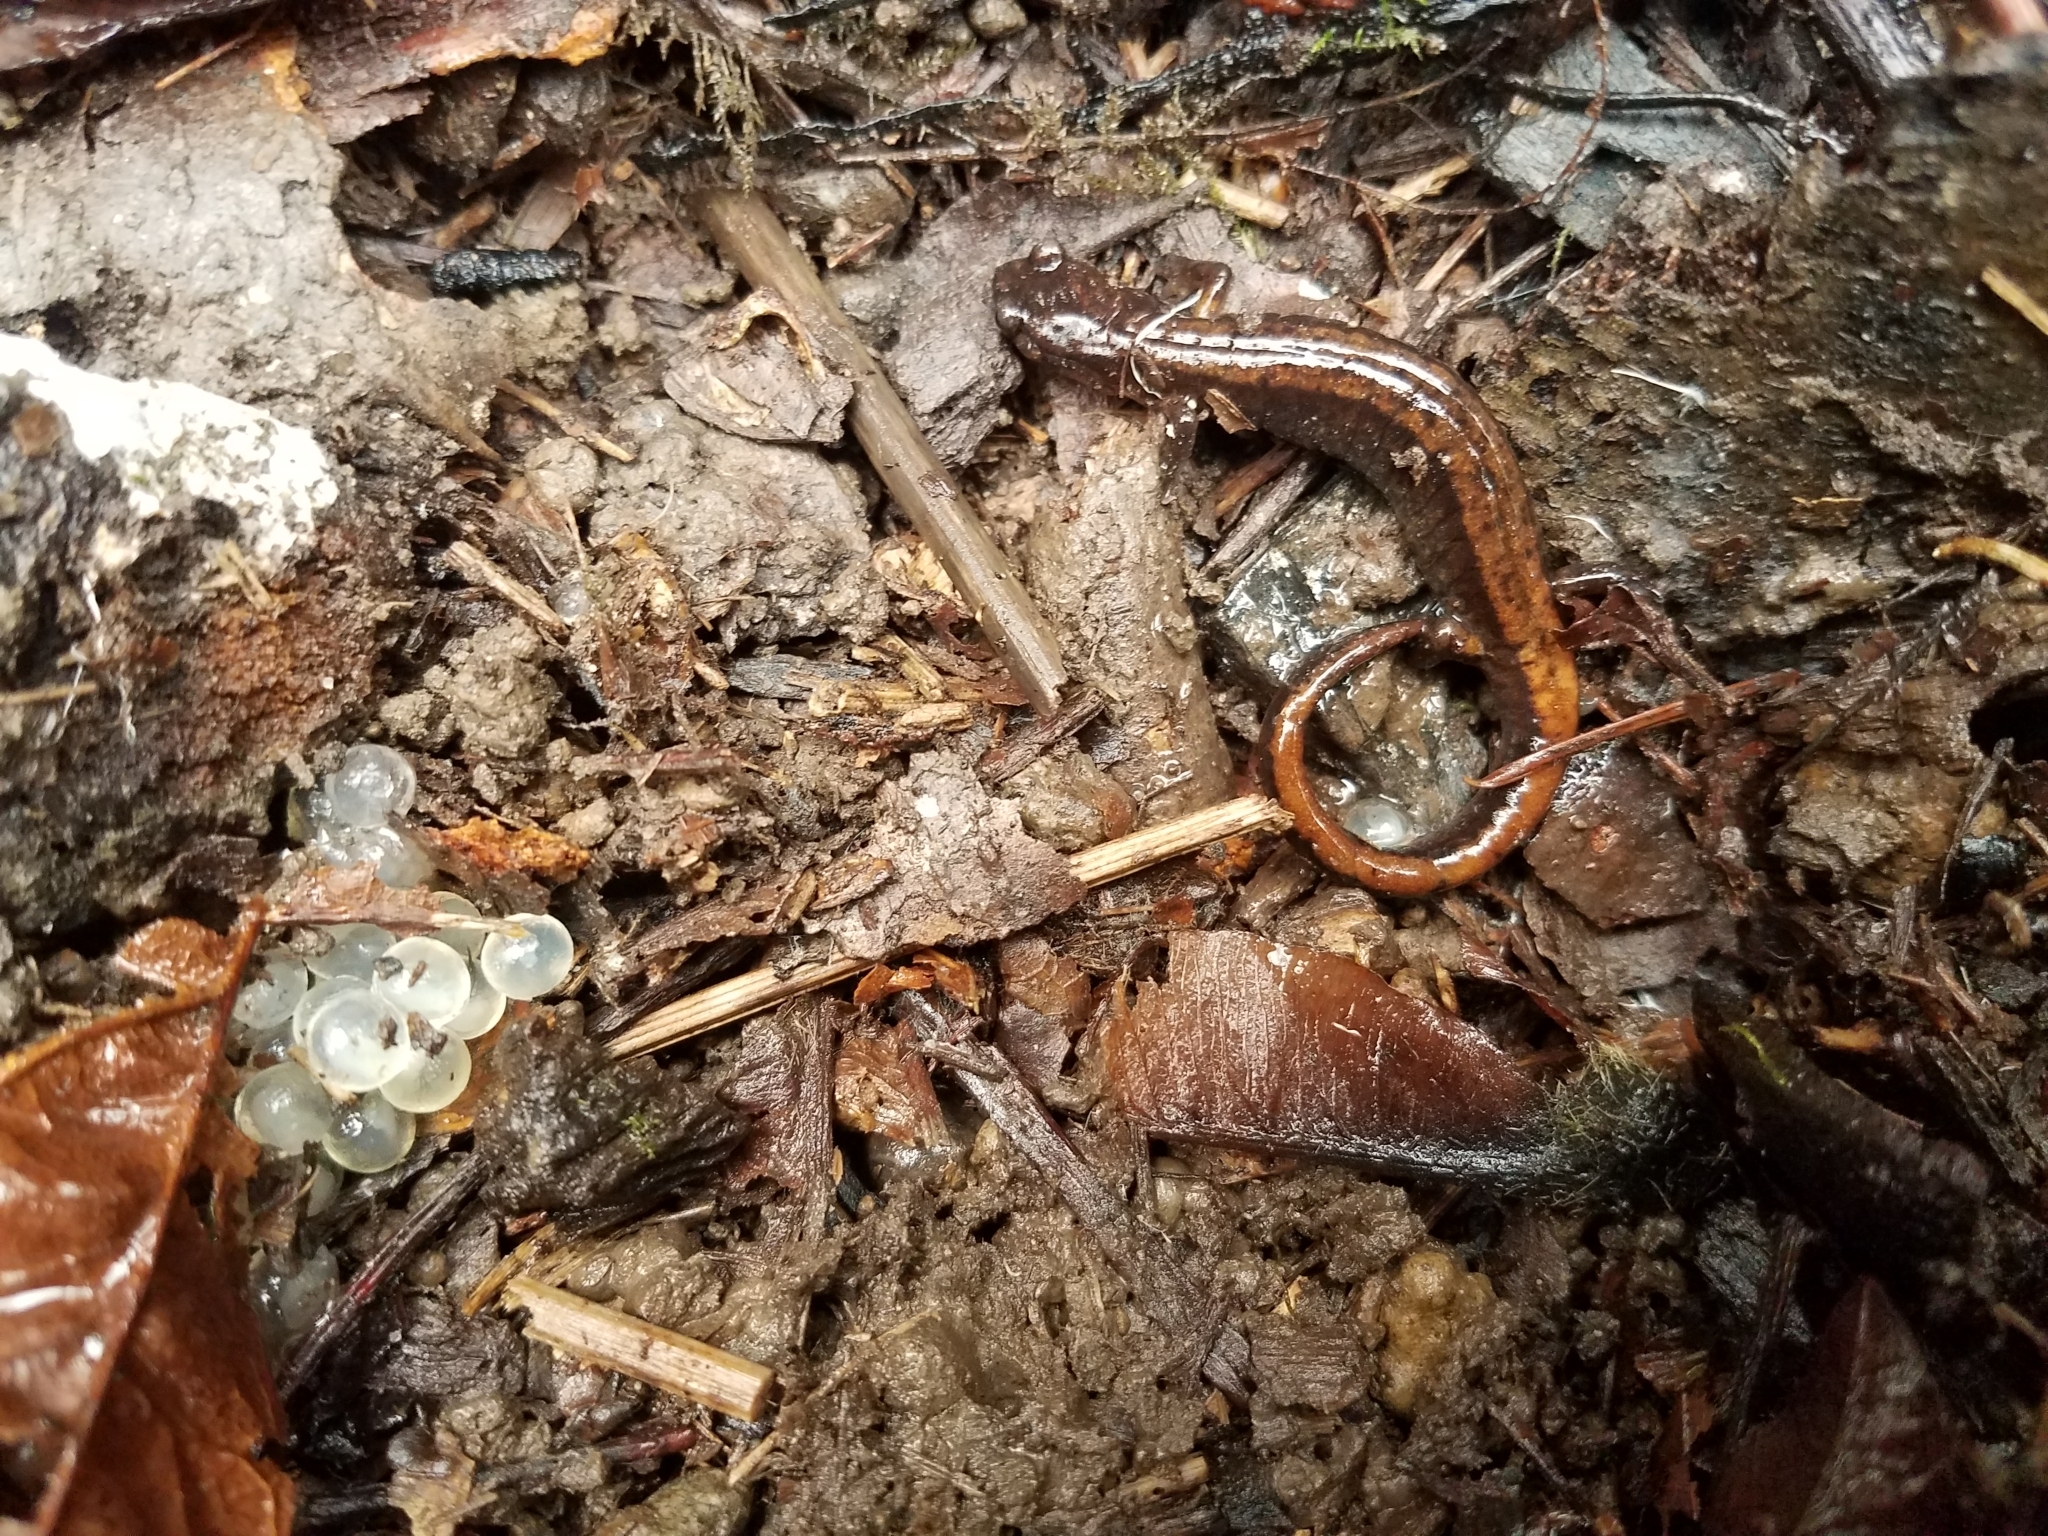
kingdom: Animalia
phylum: Chordata
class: Amphibia
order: Caudata
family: Plethodontidae
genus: Plethodon
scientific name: Plethodon vehiculum
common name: Western red-backed salamander
